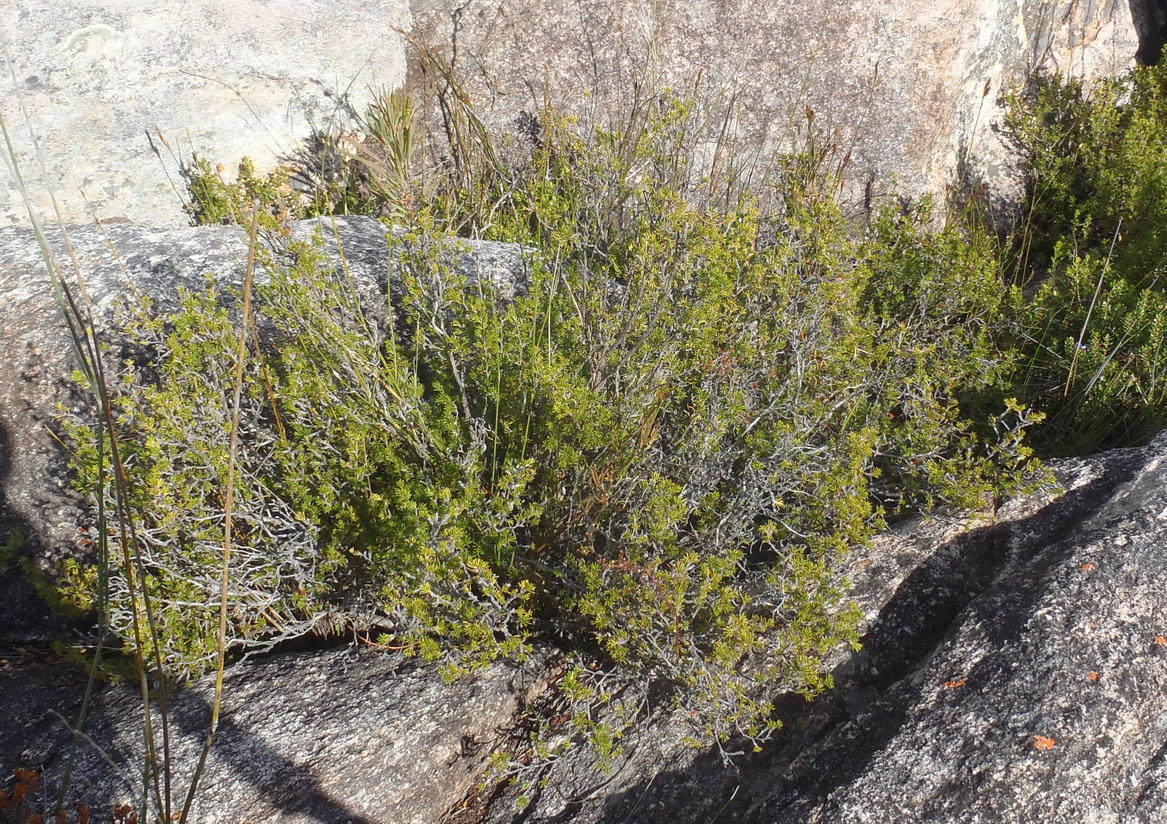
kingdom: Plantae
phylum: Tracheophyta
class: Magnoliopsida
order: Rosales
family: Rosaceae
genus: Cliffortia
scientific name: Cliffortia tuberculata
